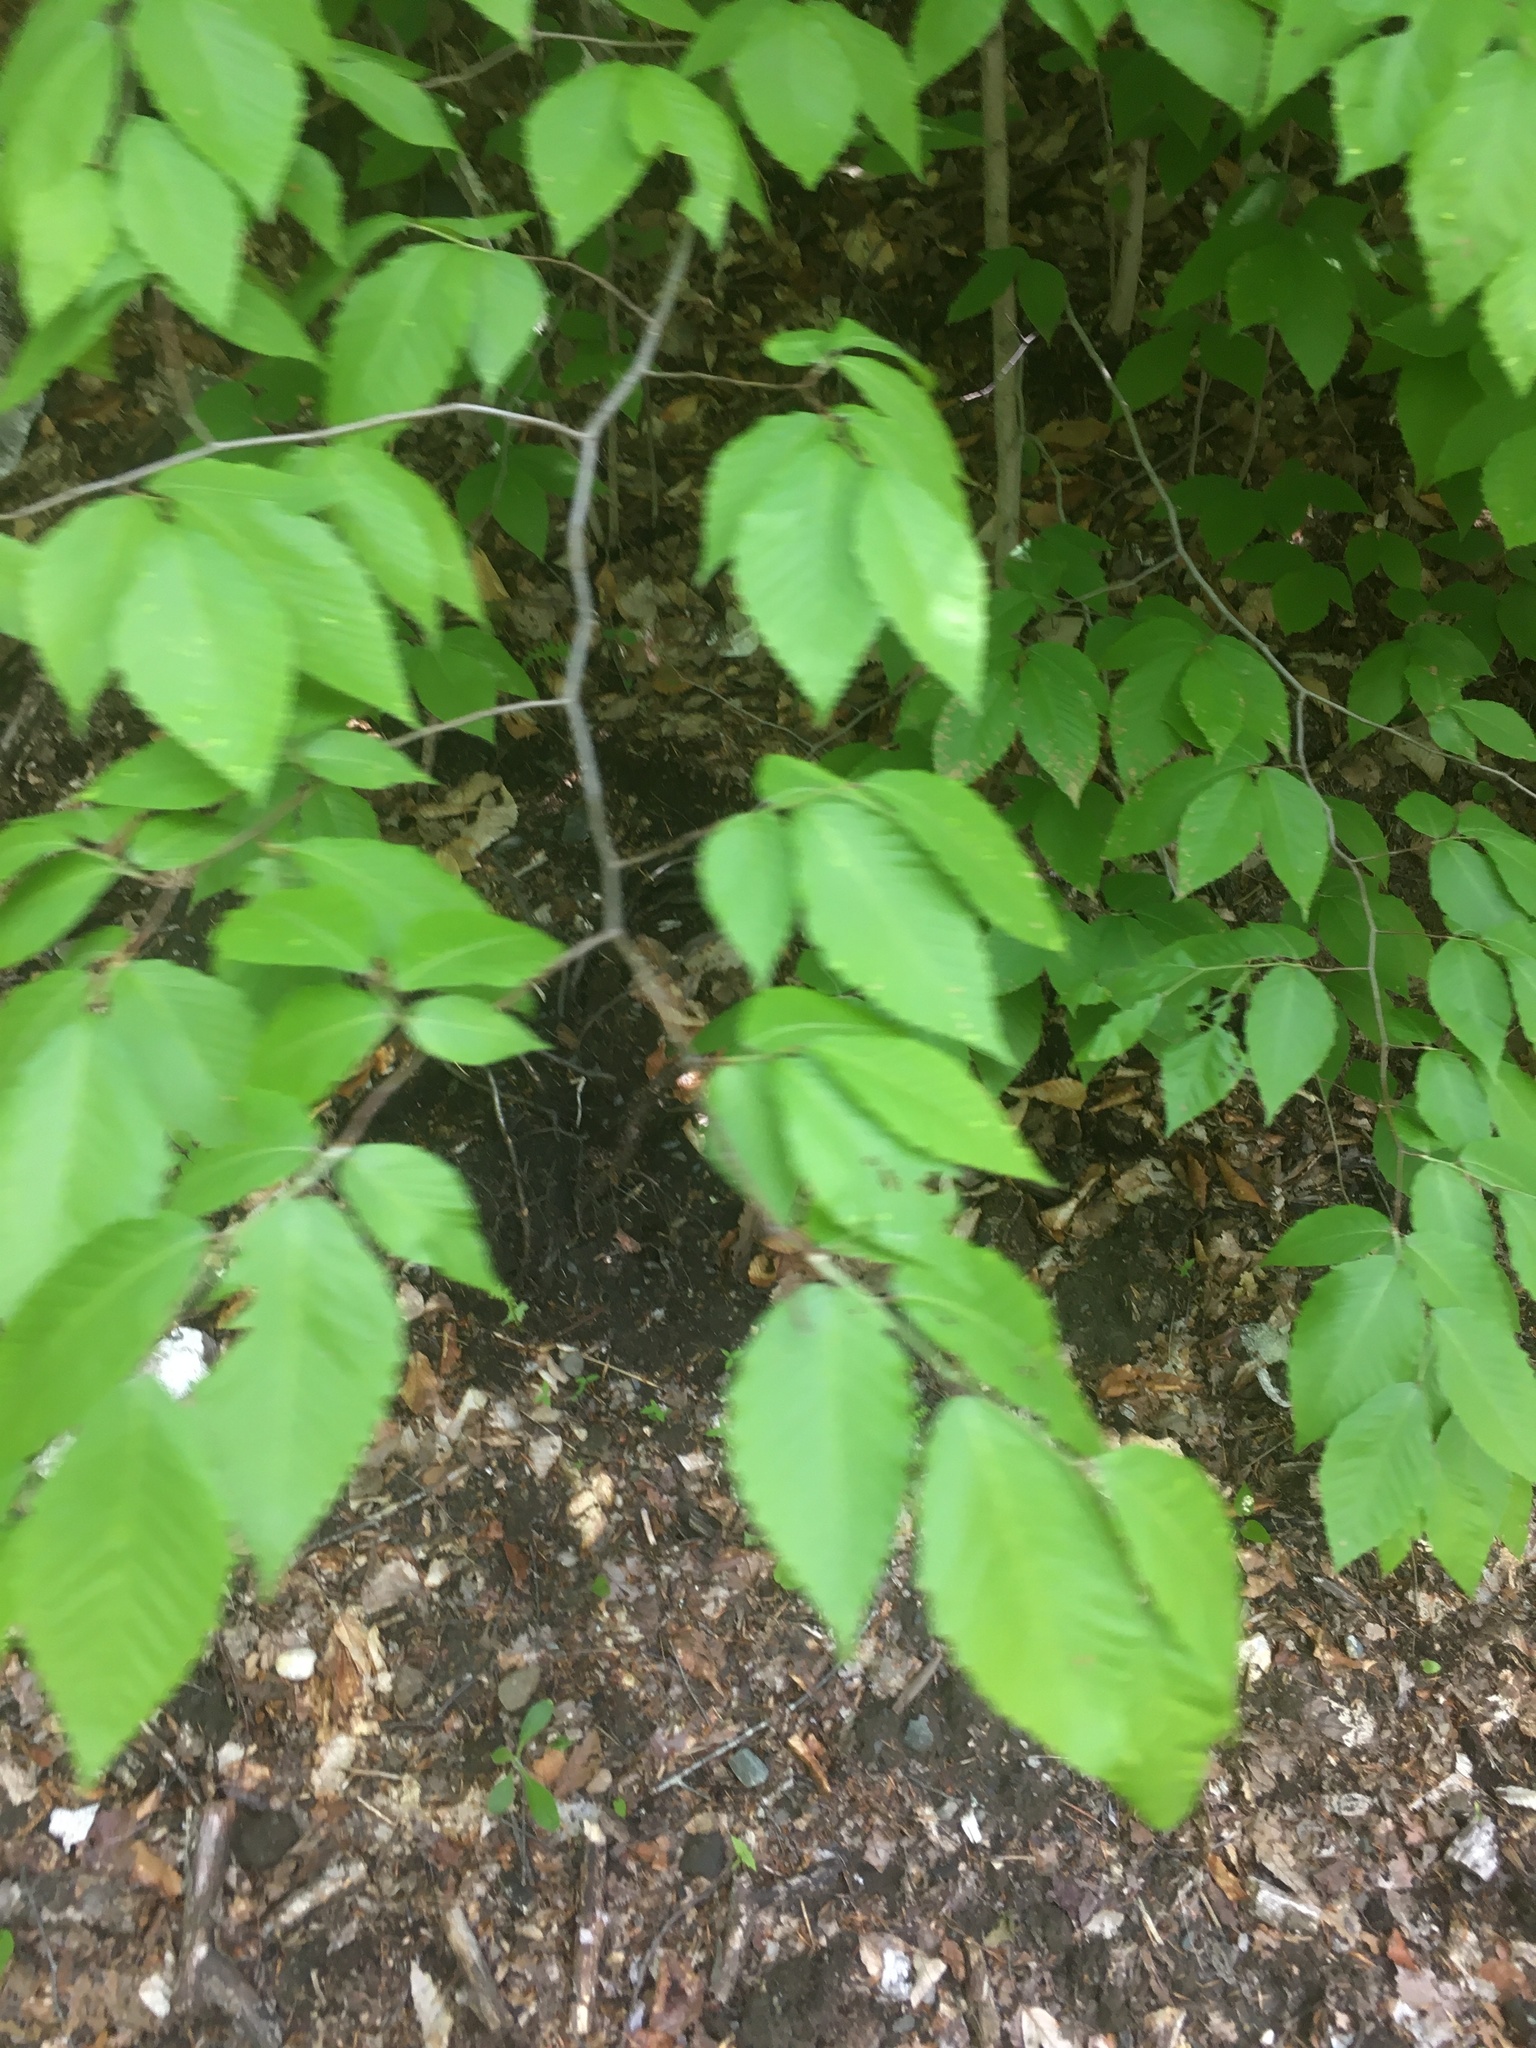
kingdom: Plantae
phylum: Tracheophyta
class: Magnoliopsida
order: Fagales
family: Fagaceae
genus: Fagus
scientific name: Fagus grandifolia
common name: American beech
